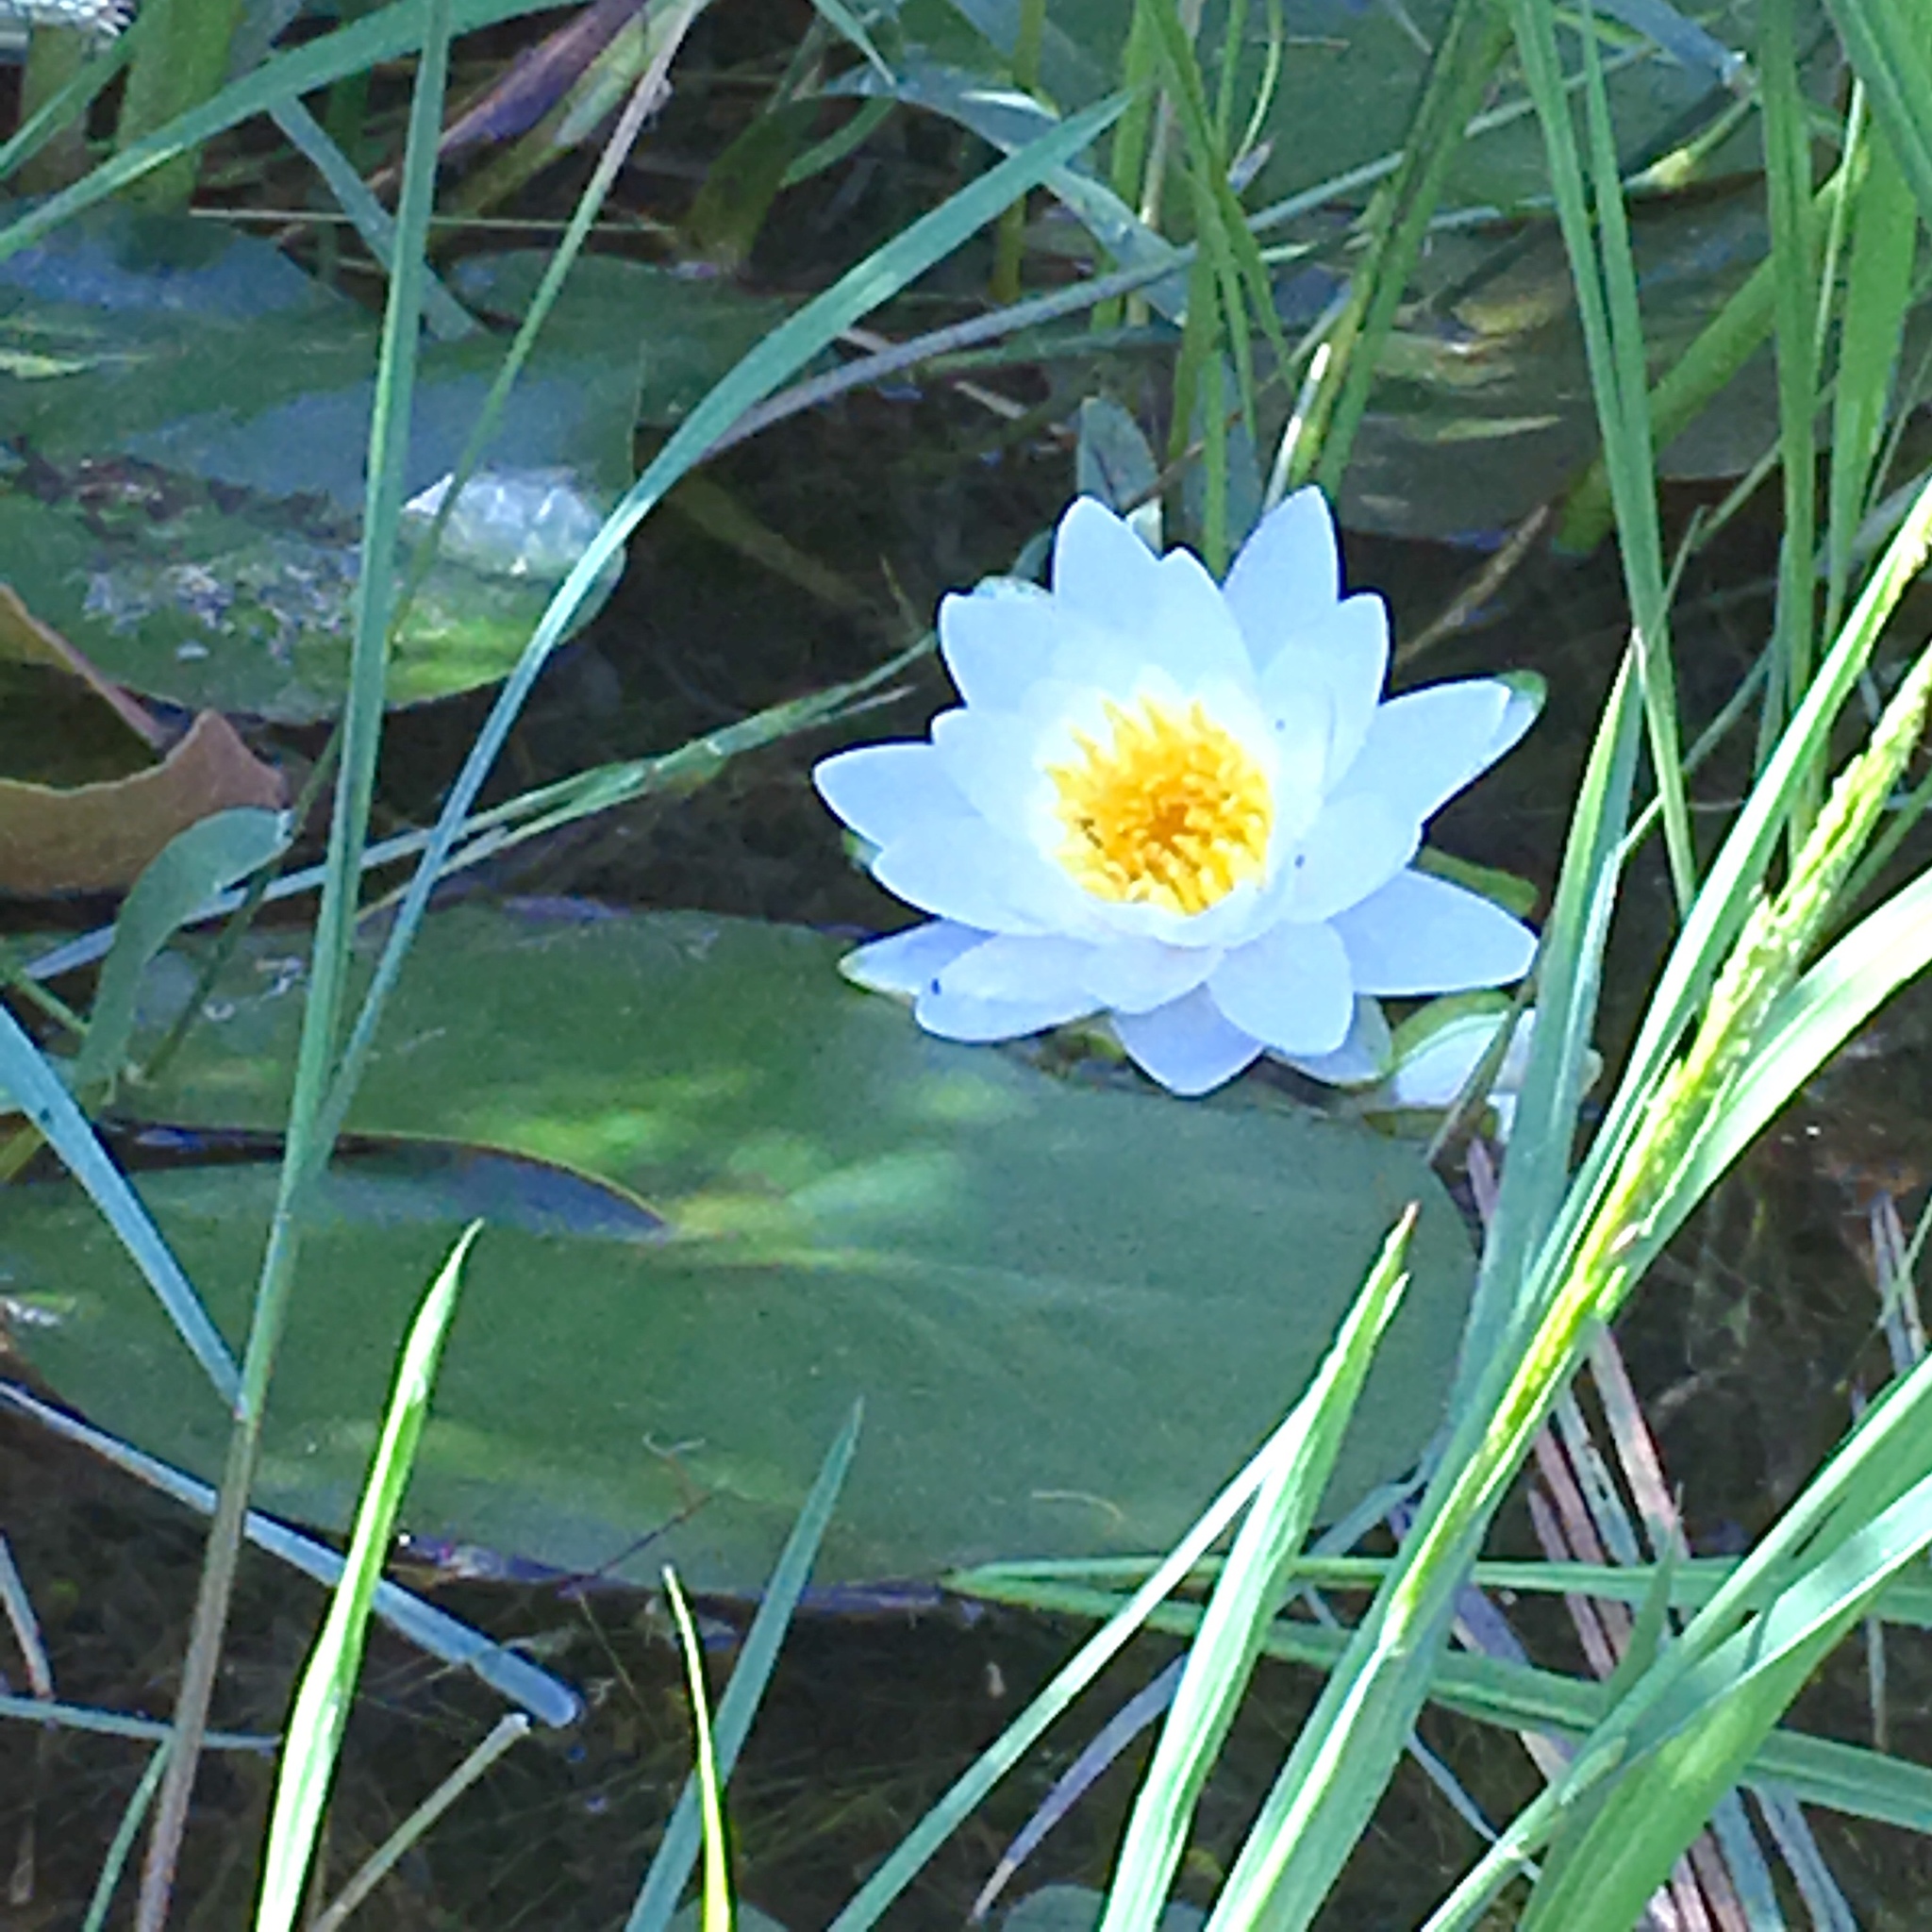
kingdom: Plantae
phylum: Tracheophyta
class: Magnoliopsida
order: Nymphaeales
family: Nymphaeaceae
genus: Nymphaea
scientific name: Nymphaea odorata
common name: Fragrant water-lily
